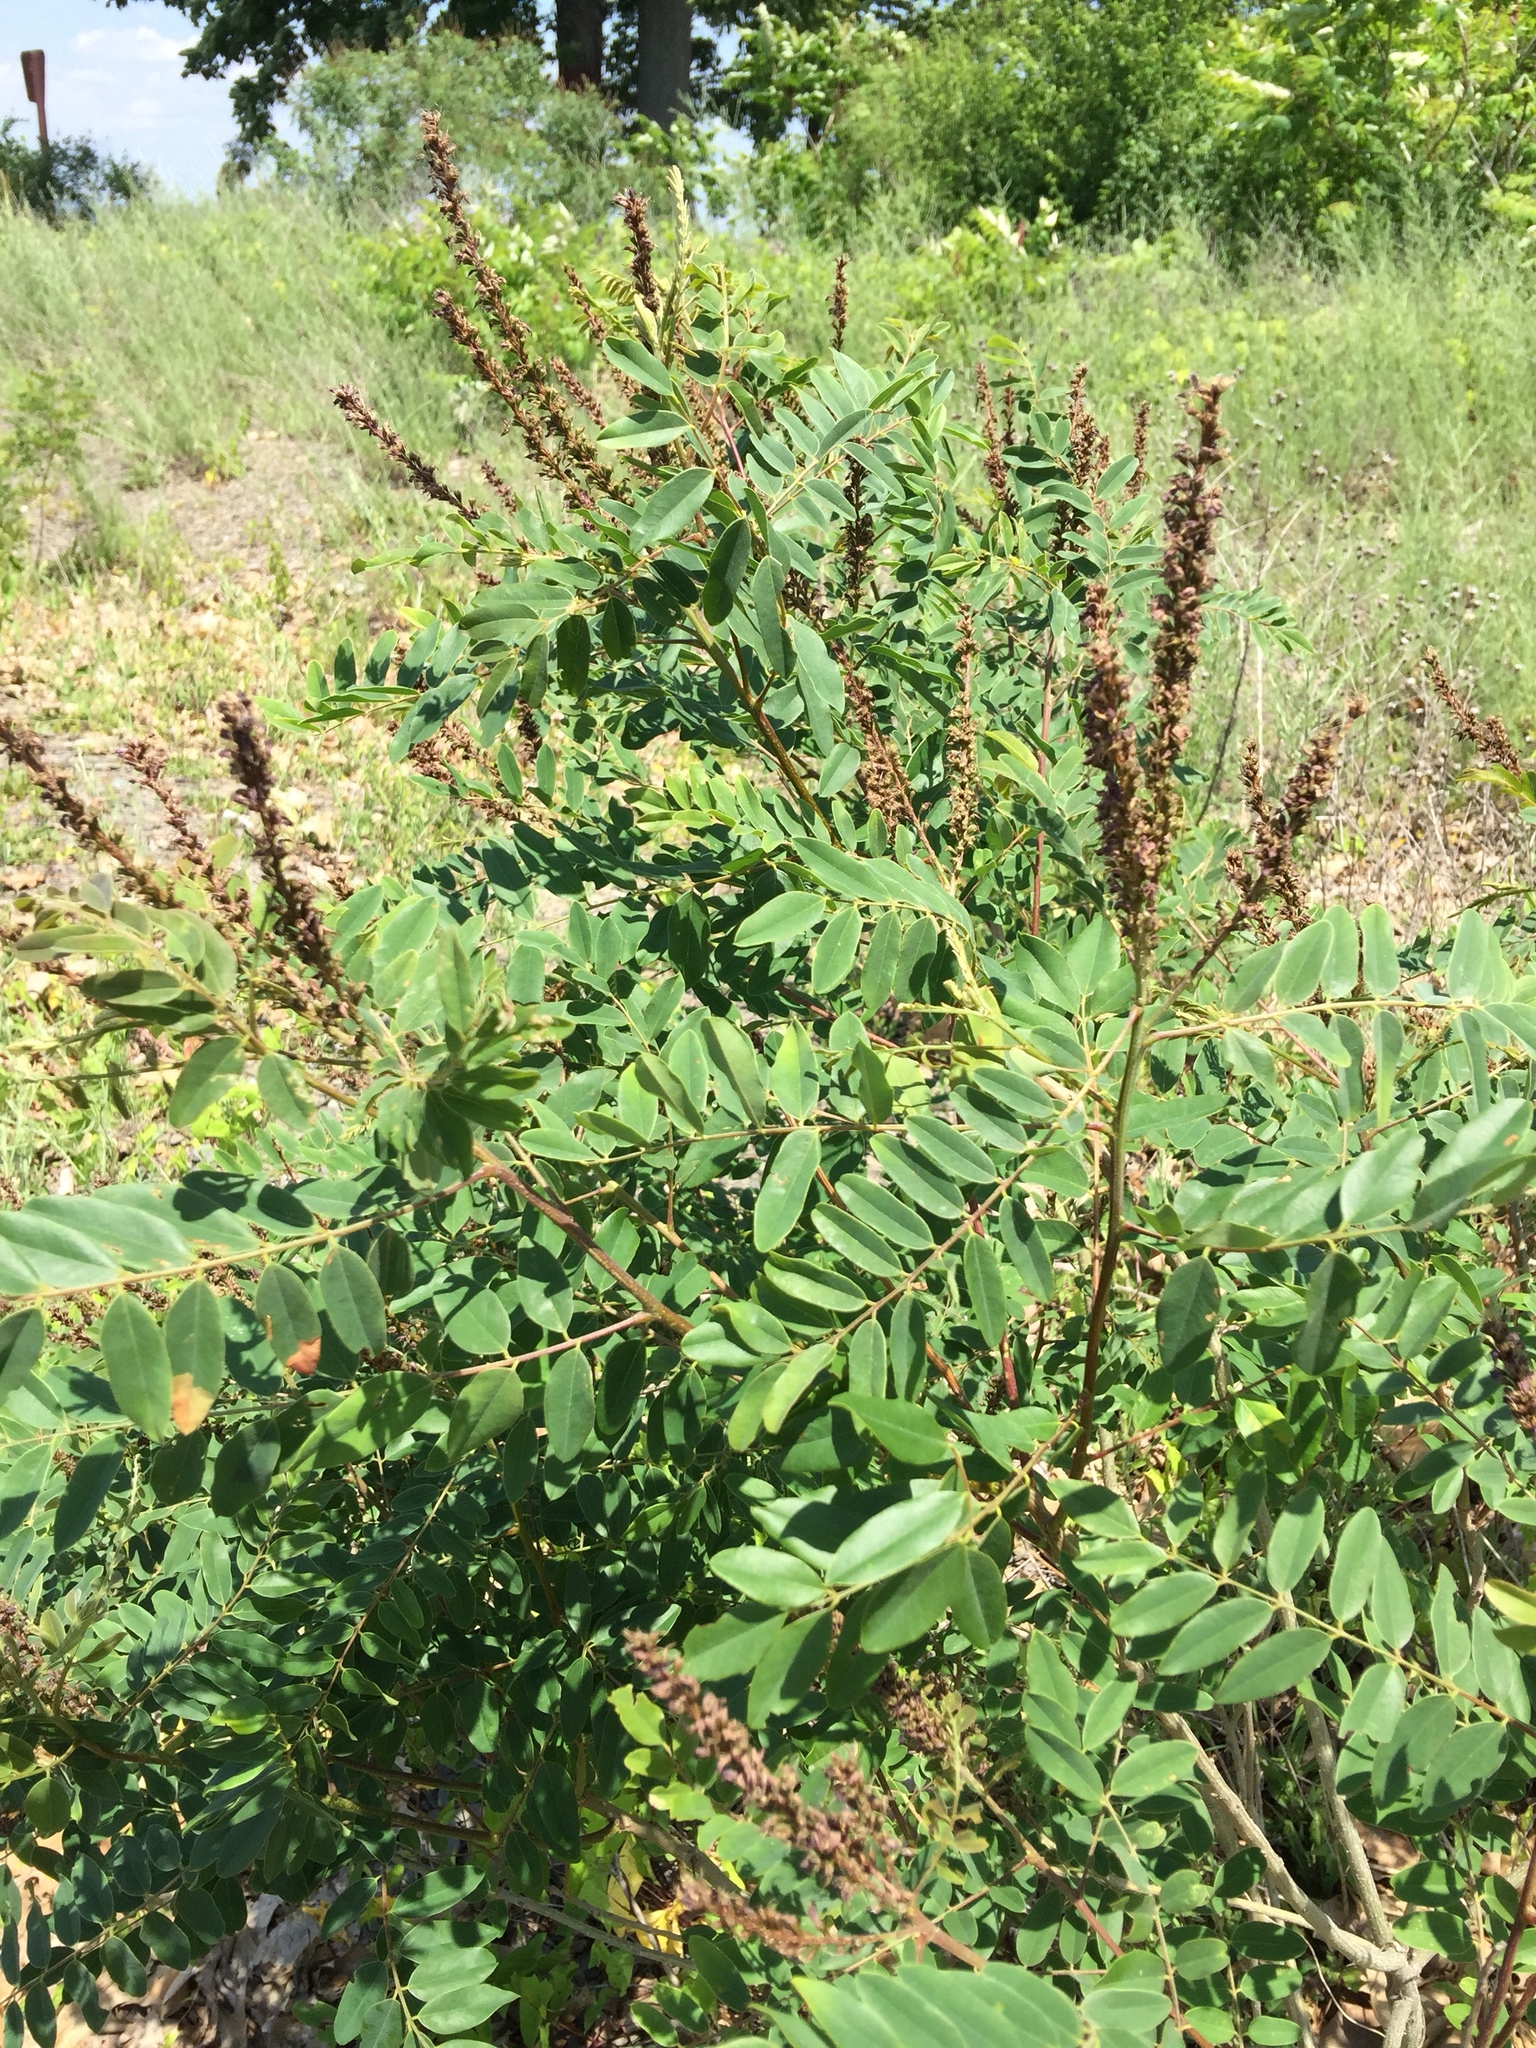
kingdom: Plantae
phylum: Tracheophyta
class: Magnoliopsida
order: Fabales
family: Fabaceae
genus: Amorpha
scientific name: Amorpha fruticosa
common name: False indigo
